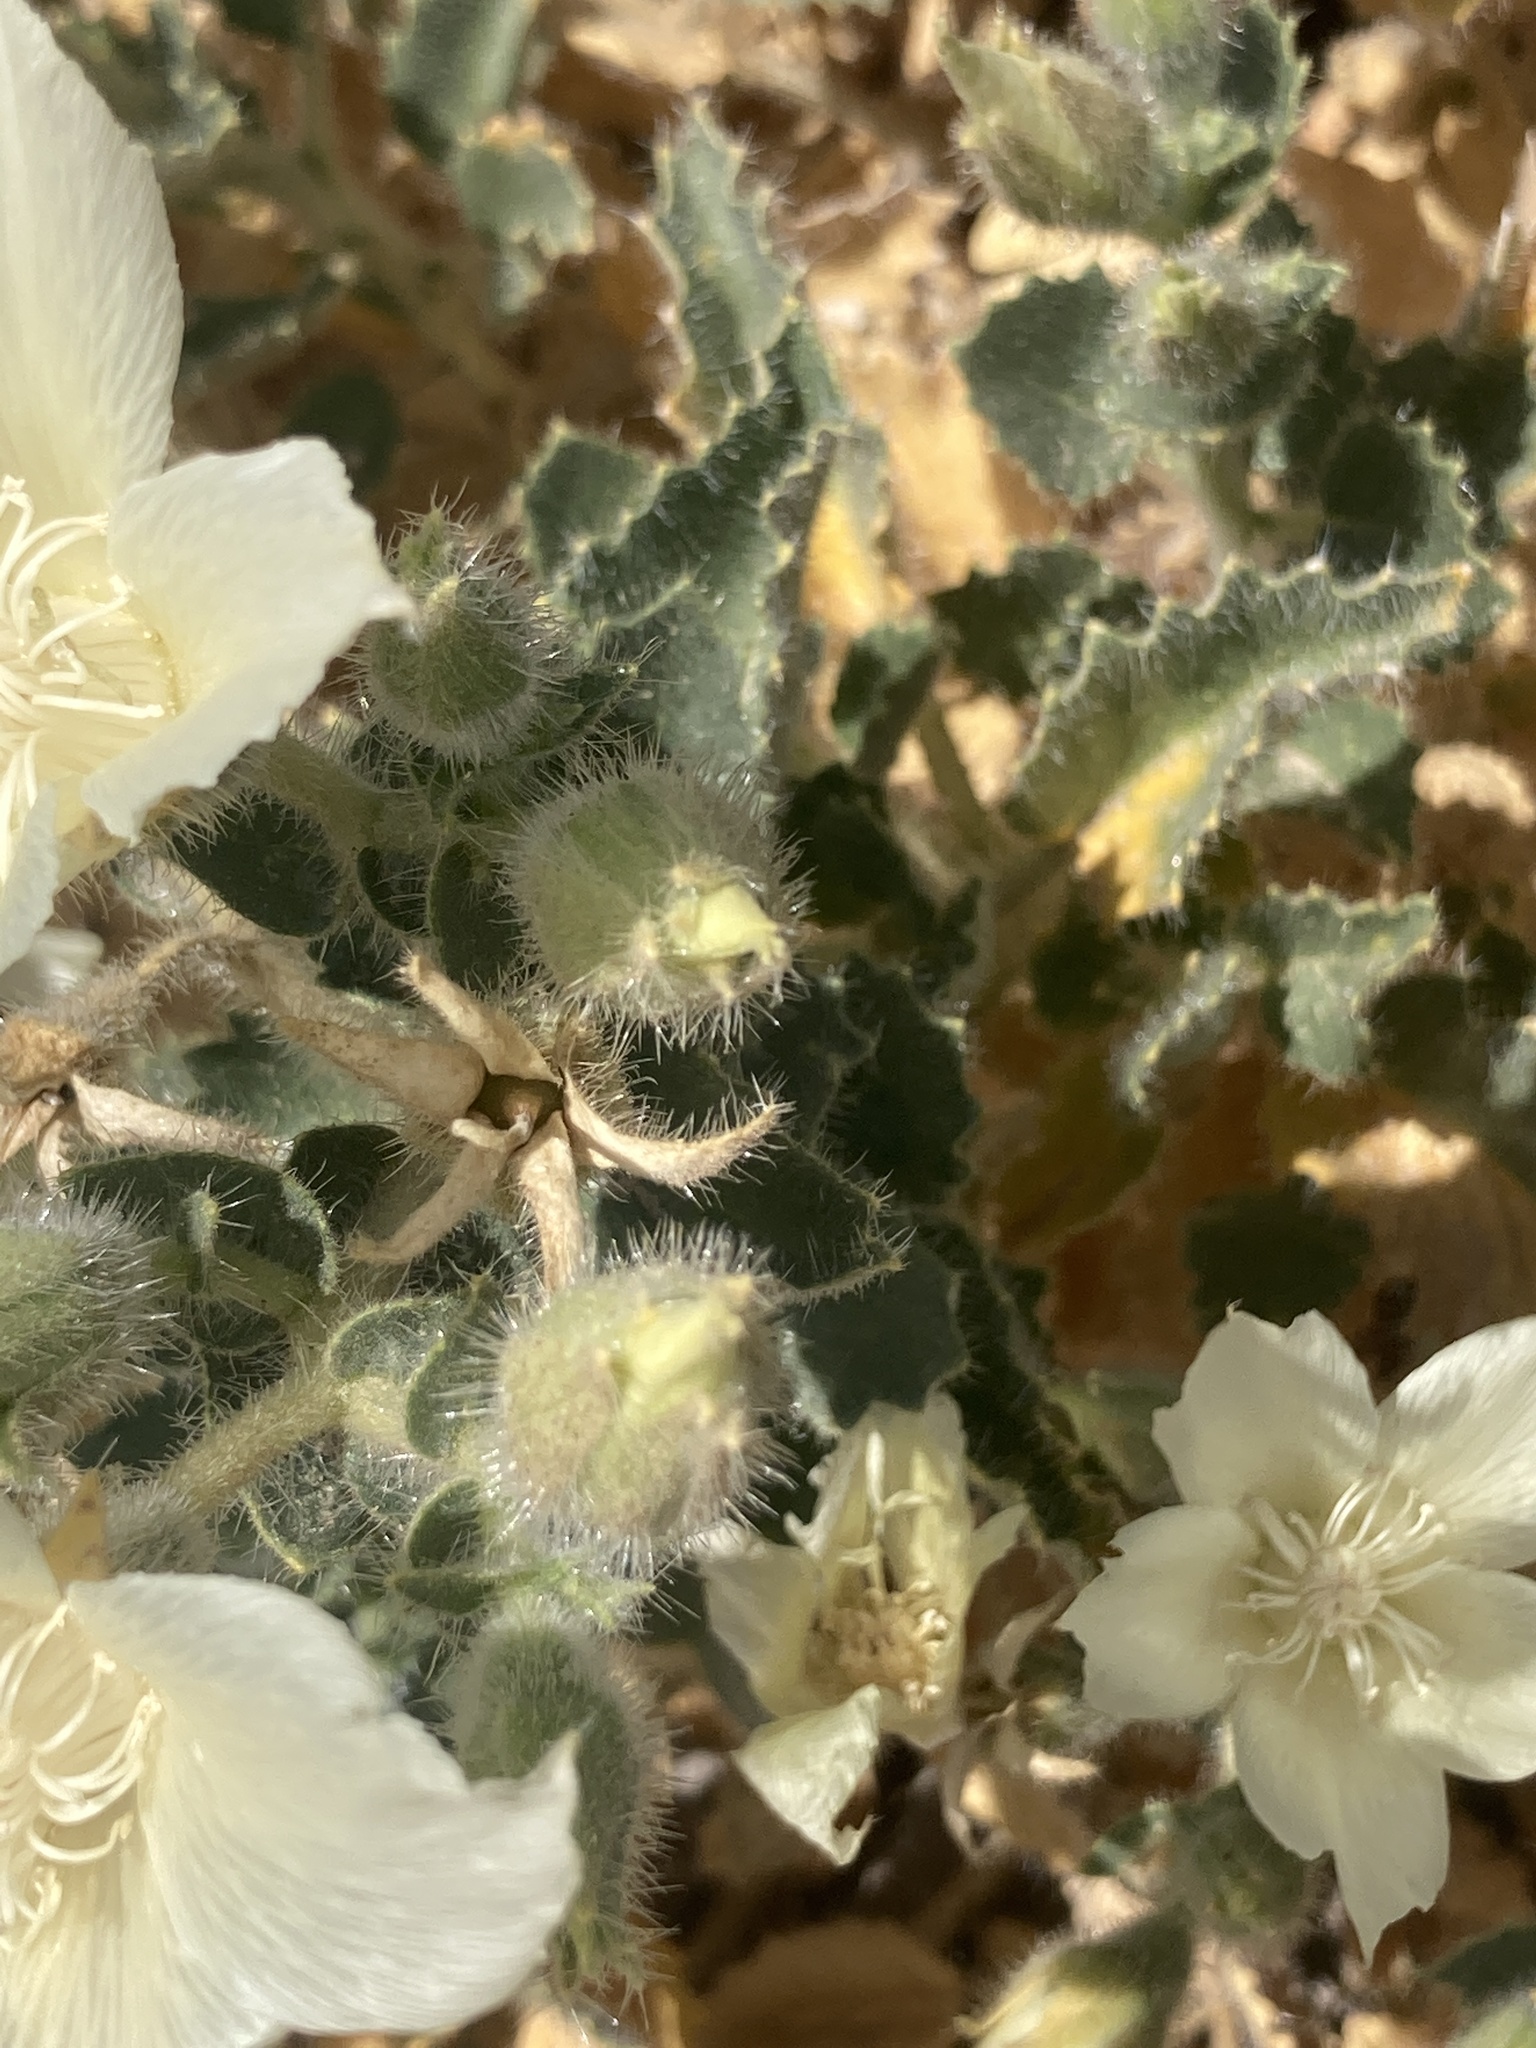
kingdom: Plantae
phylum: Tracheophyta
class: Magnoliopsida
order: Cornales
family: Loasaceae
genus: Eucnide
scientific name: Eucnide urens
